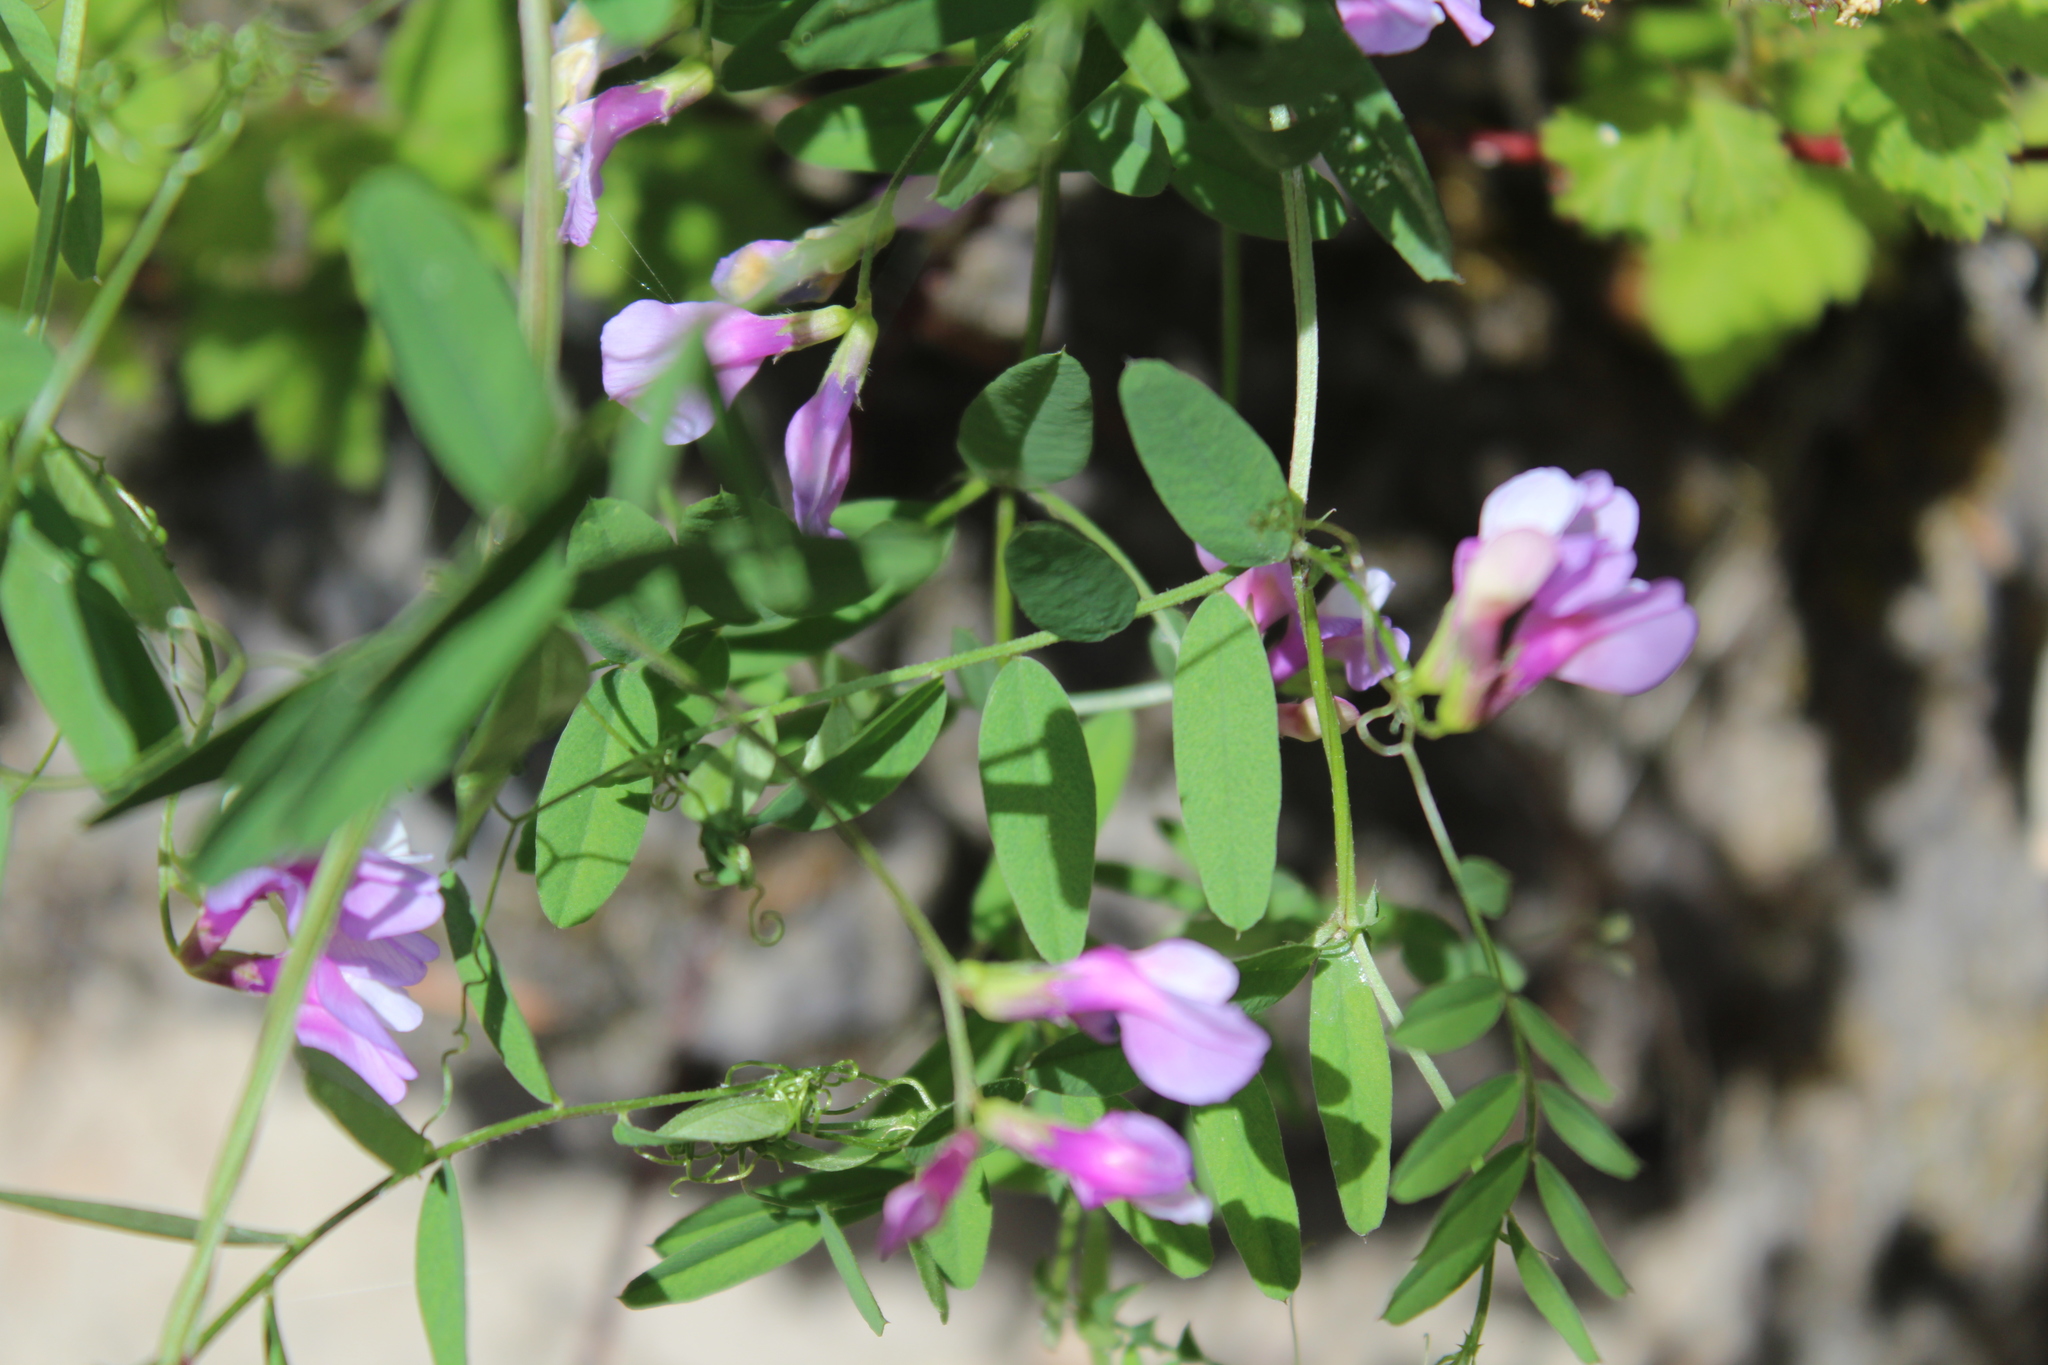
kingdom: Plantae
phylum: Tracheophyta
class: Magnoliopsida
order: Fabales
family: Fabaceae
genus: Vicia
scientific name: Vicia americana
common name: American vetch
